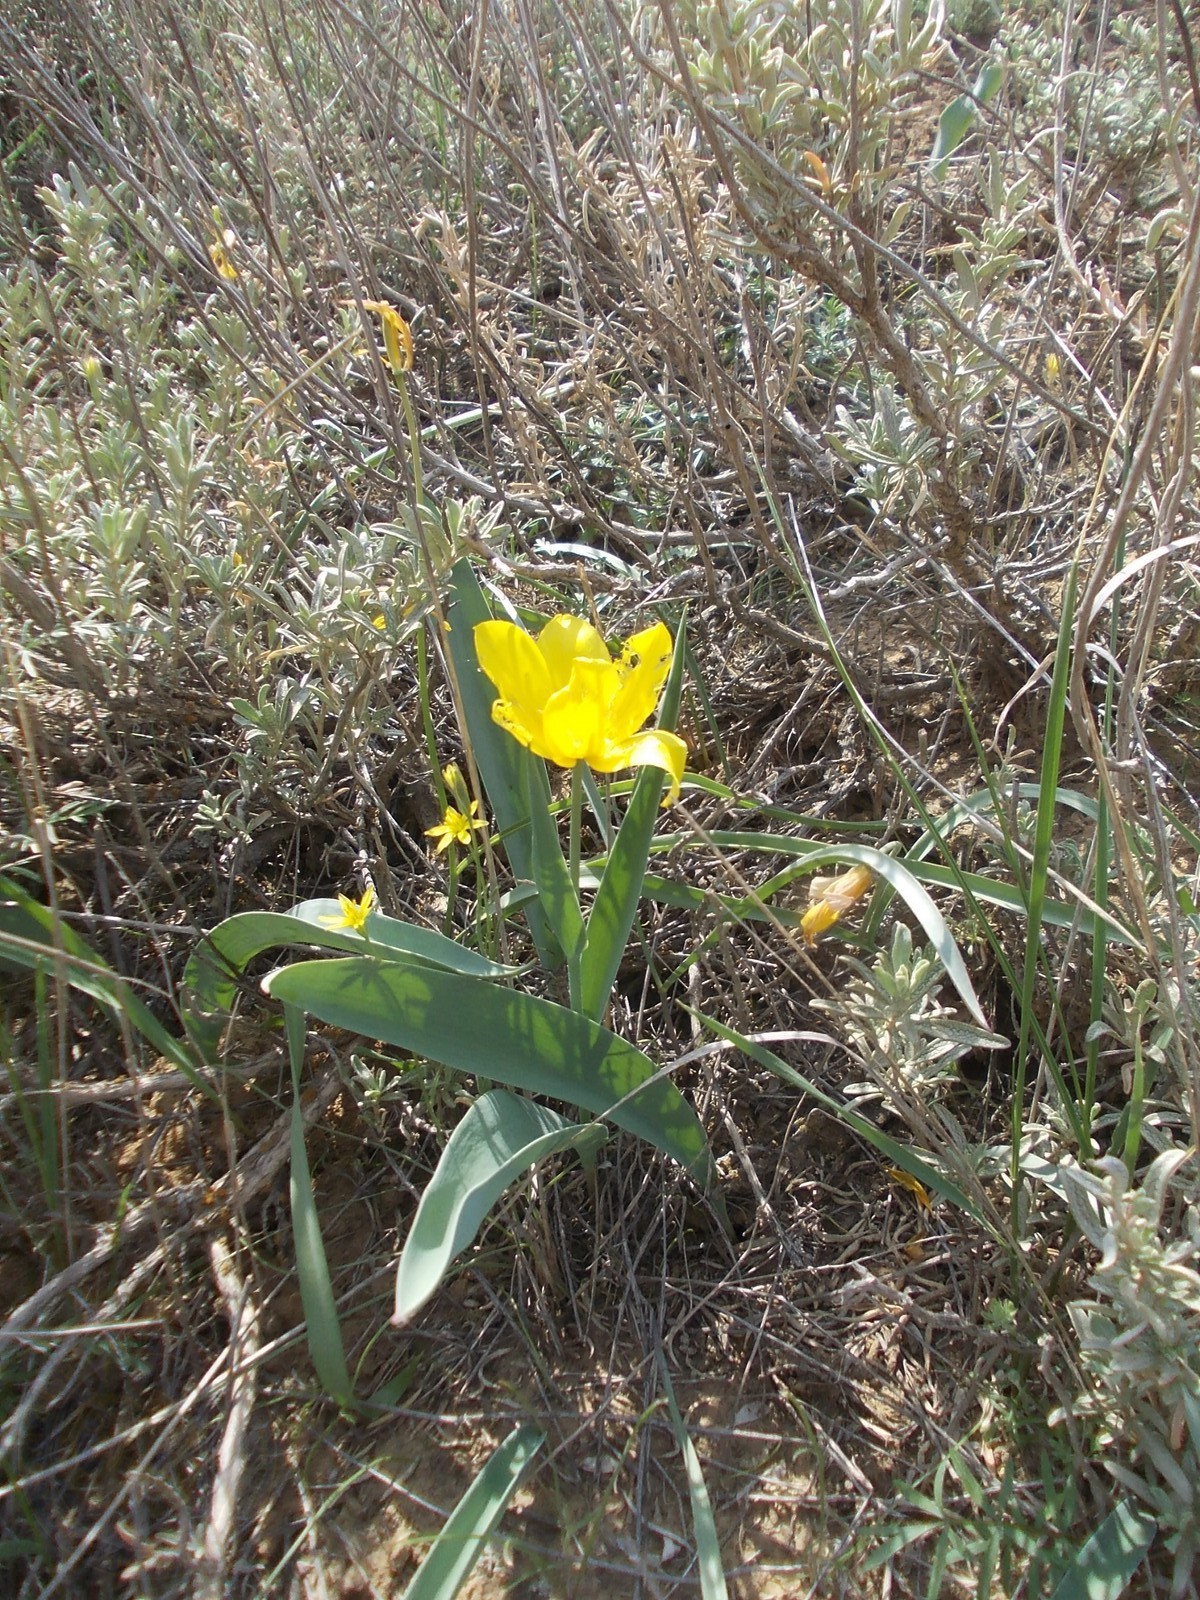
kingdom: Plantae
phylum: Tracheophyta
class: Liliopsida
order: Liliales
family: Liliaceae
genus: Tulipa
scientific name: Tulipa suaveolens
